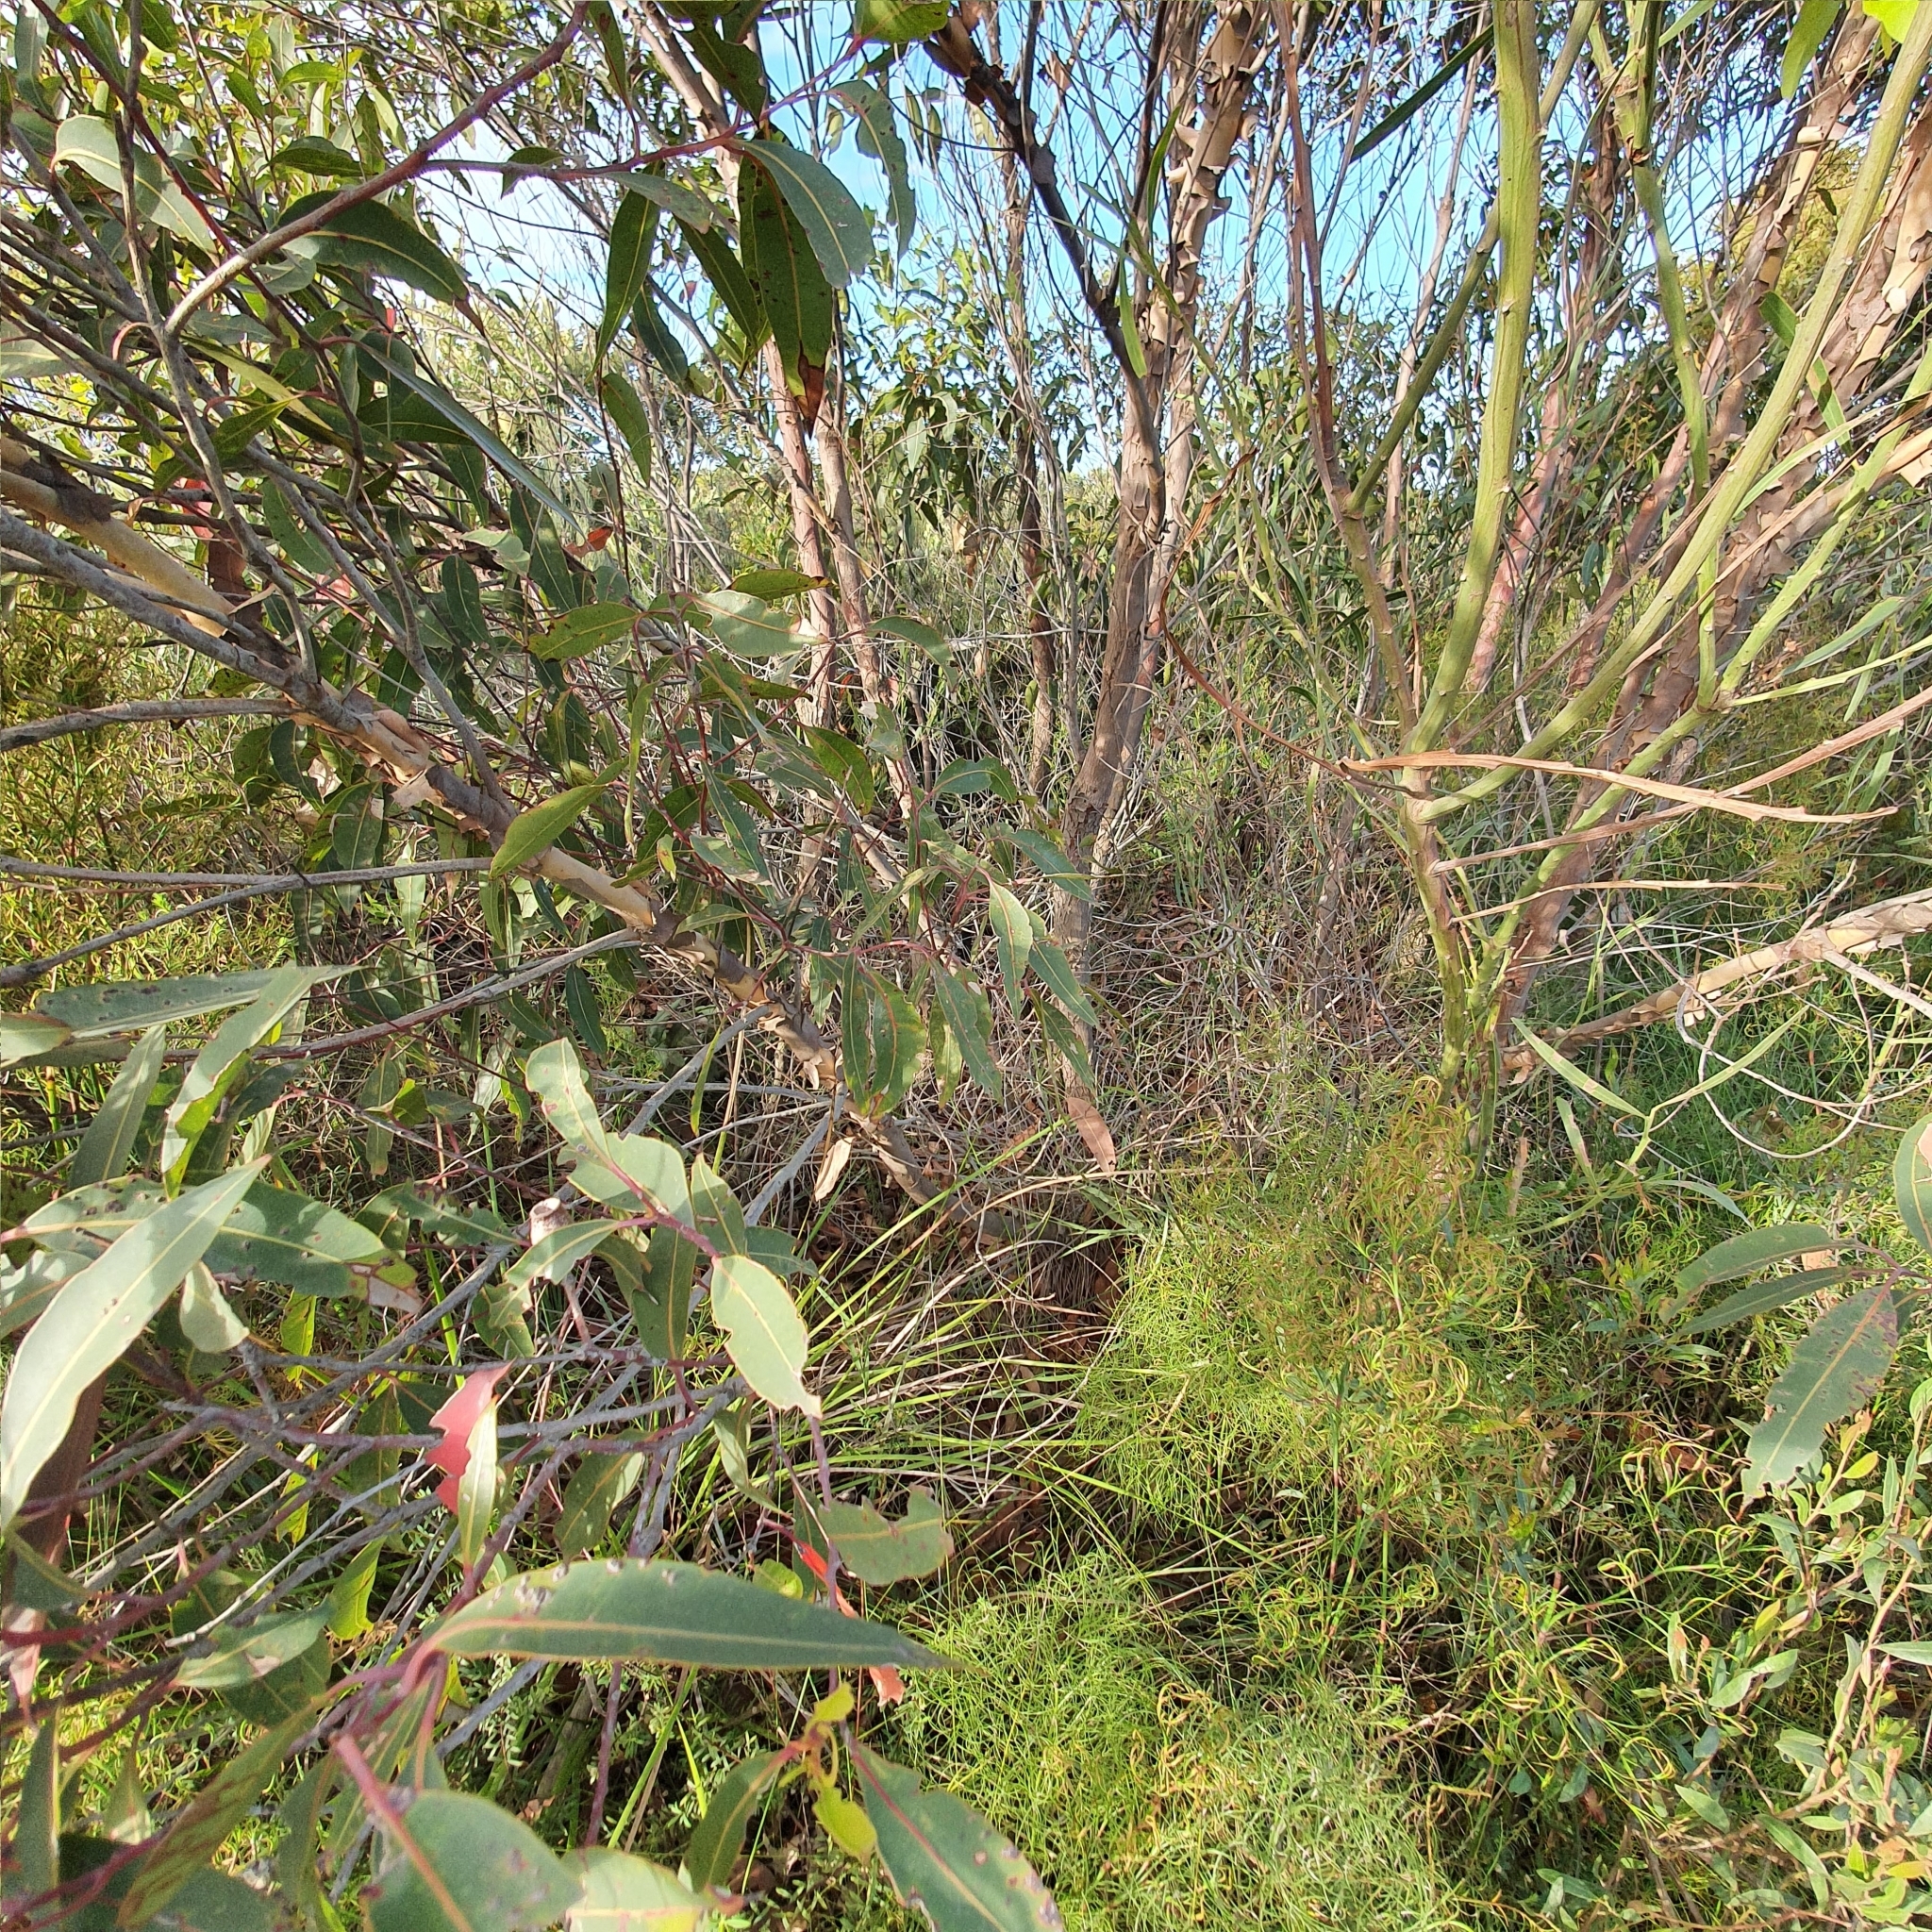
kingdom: Plantae
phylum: Tracheophyta
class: Magnoliopsida
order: Myrtales
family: Myrtaceae
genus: Corymbia
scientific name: Corymbia gummifera
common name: Red bloodwood
